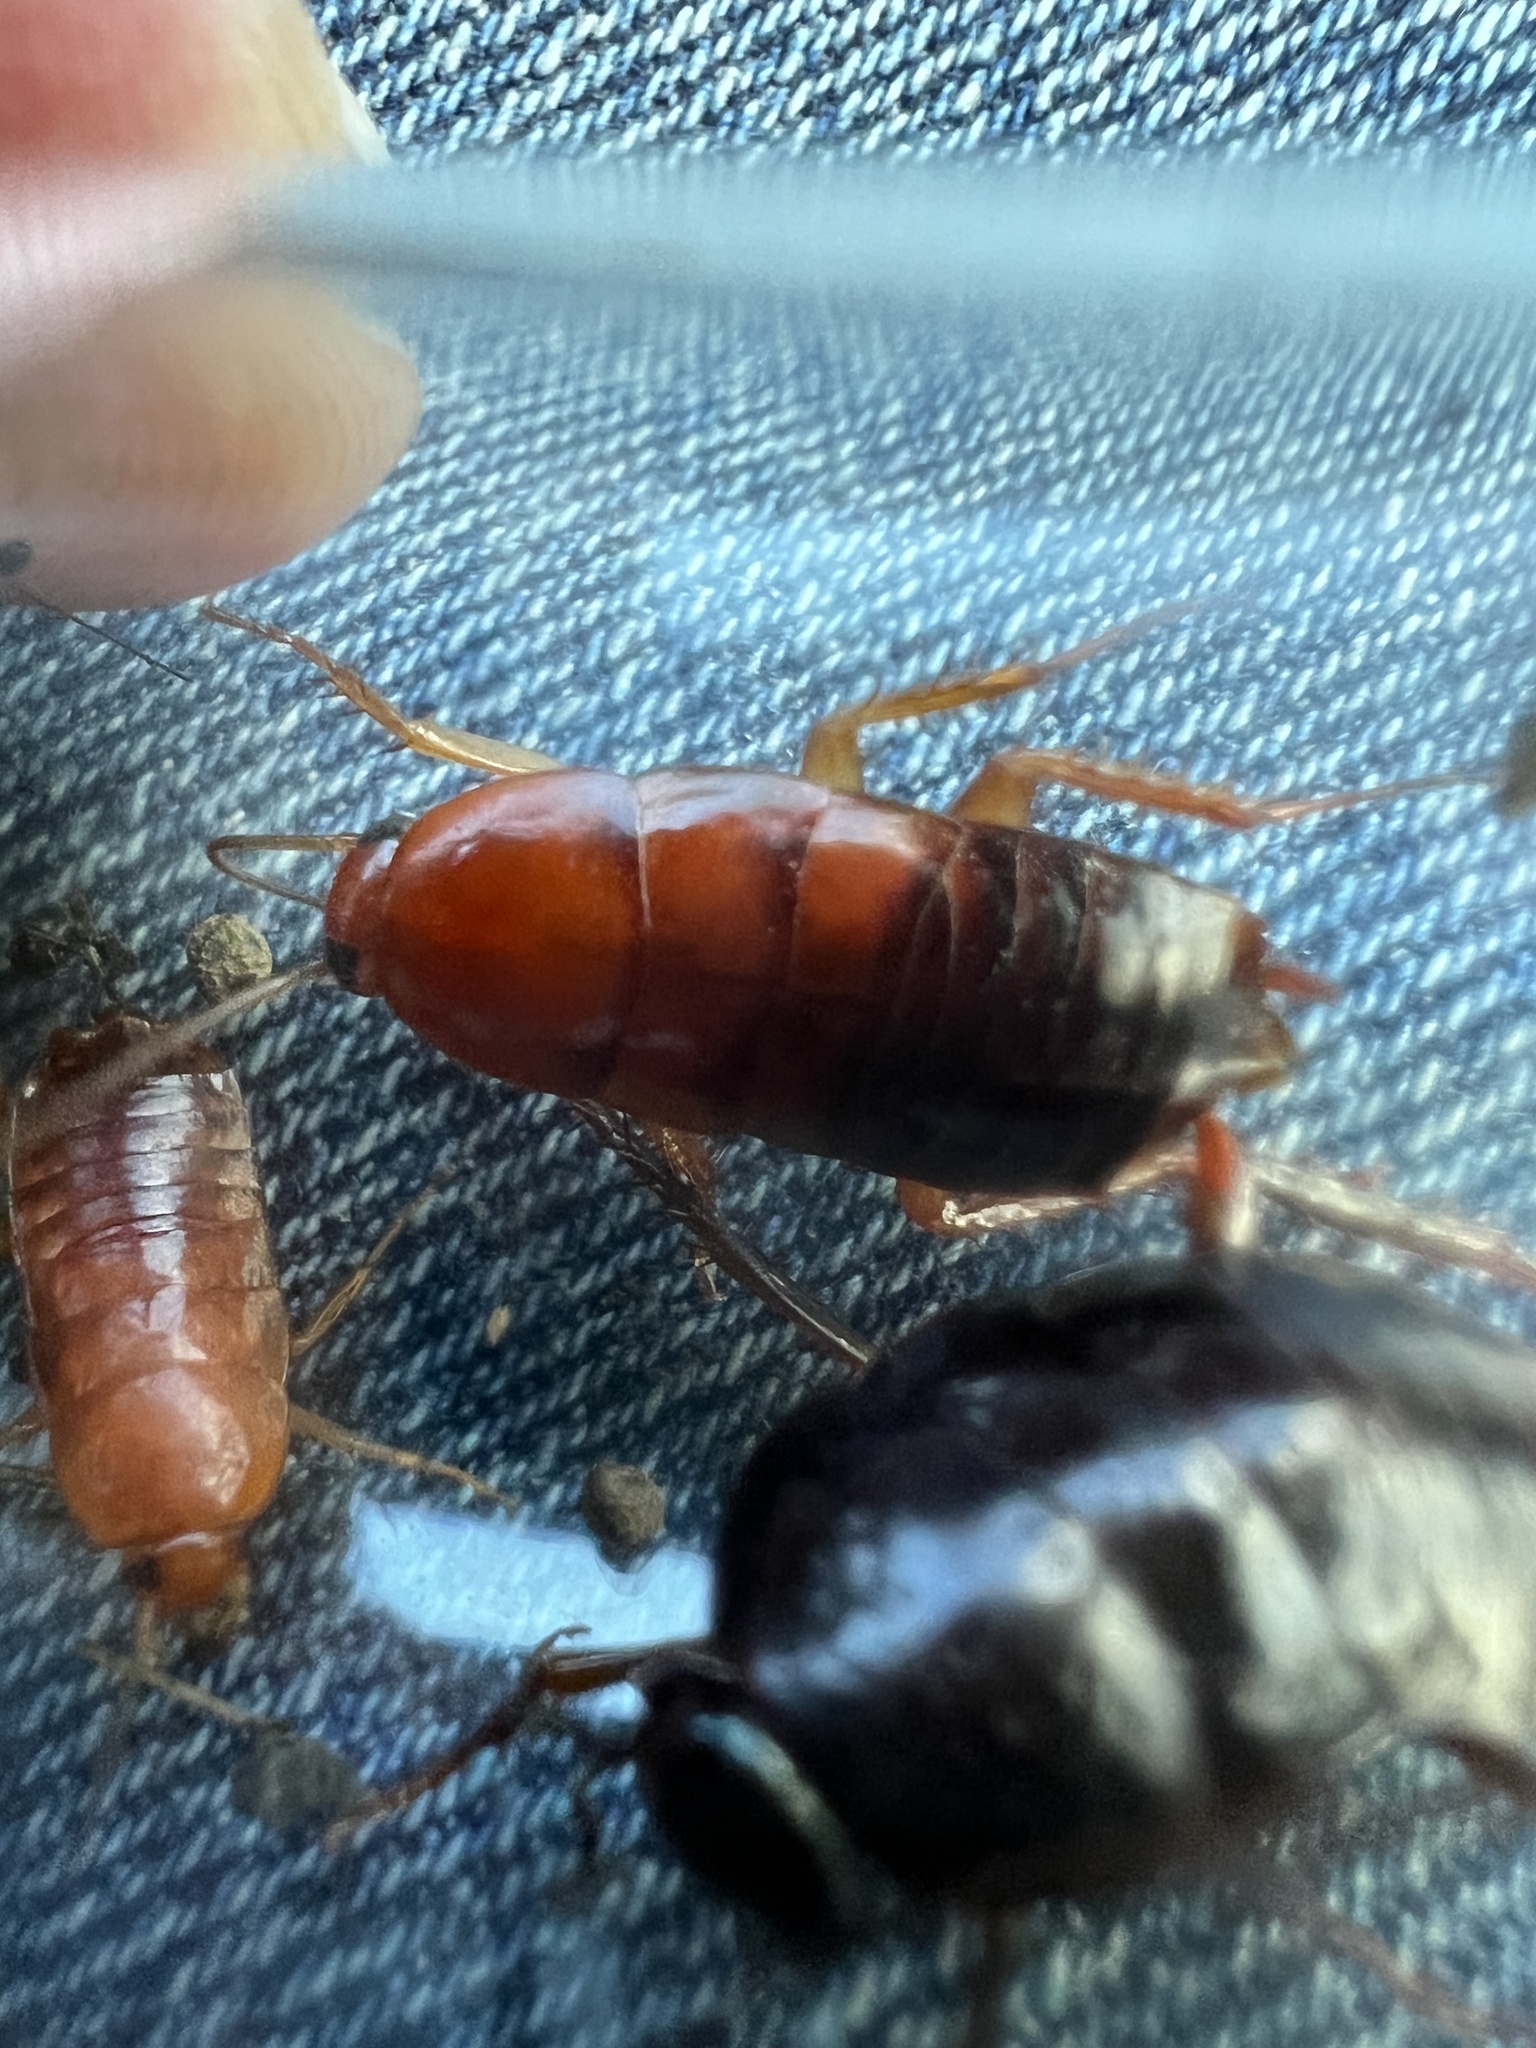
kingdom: Animalia
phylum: Arthropoda
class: Insecta
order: Blattodea
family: Blattidae
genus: Periplaneta
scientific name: Periplaneta lateralis
